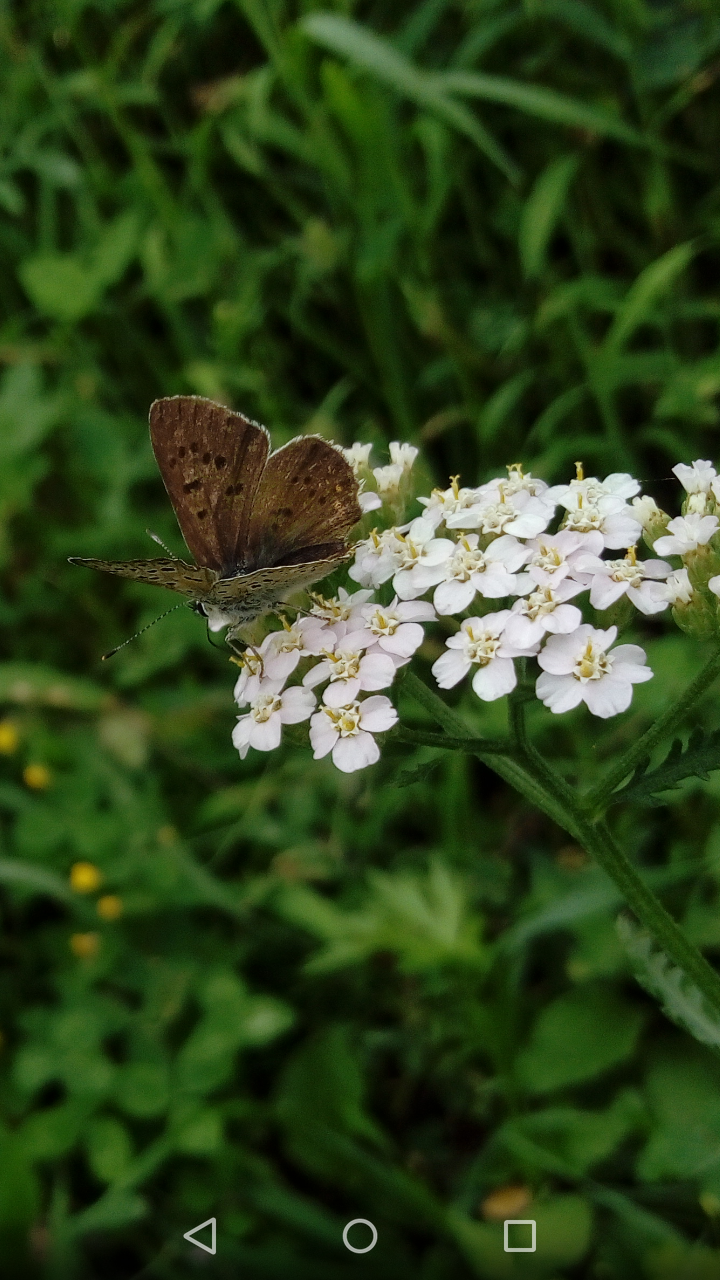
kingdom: Animalia
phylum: Arthropoda
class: Insecta
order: Lepidoptera
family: Lycaenidae
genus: Loweia
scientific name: Loweia tityrus
